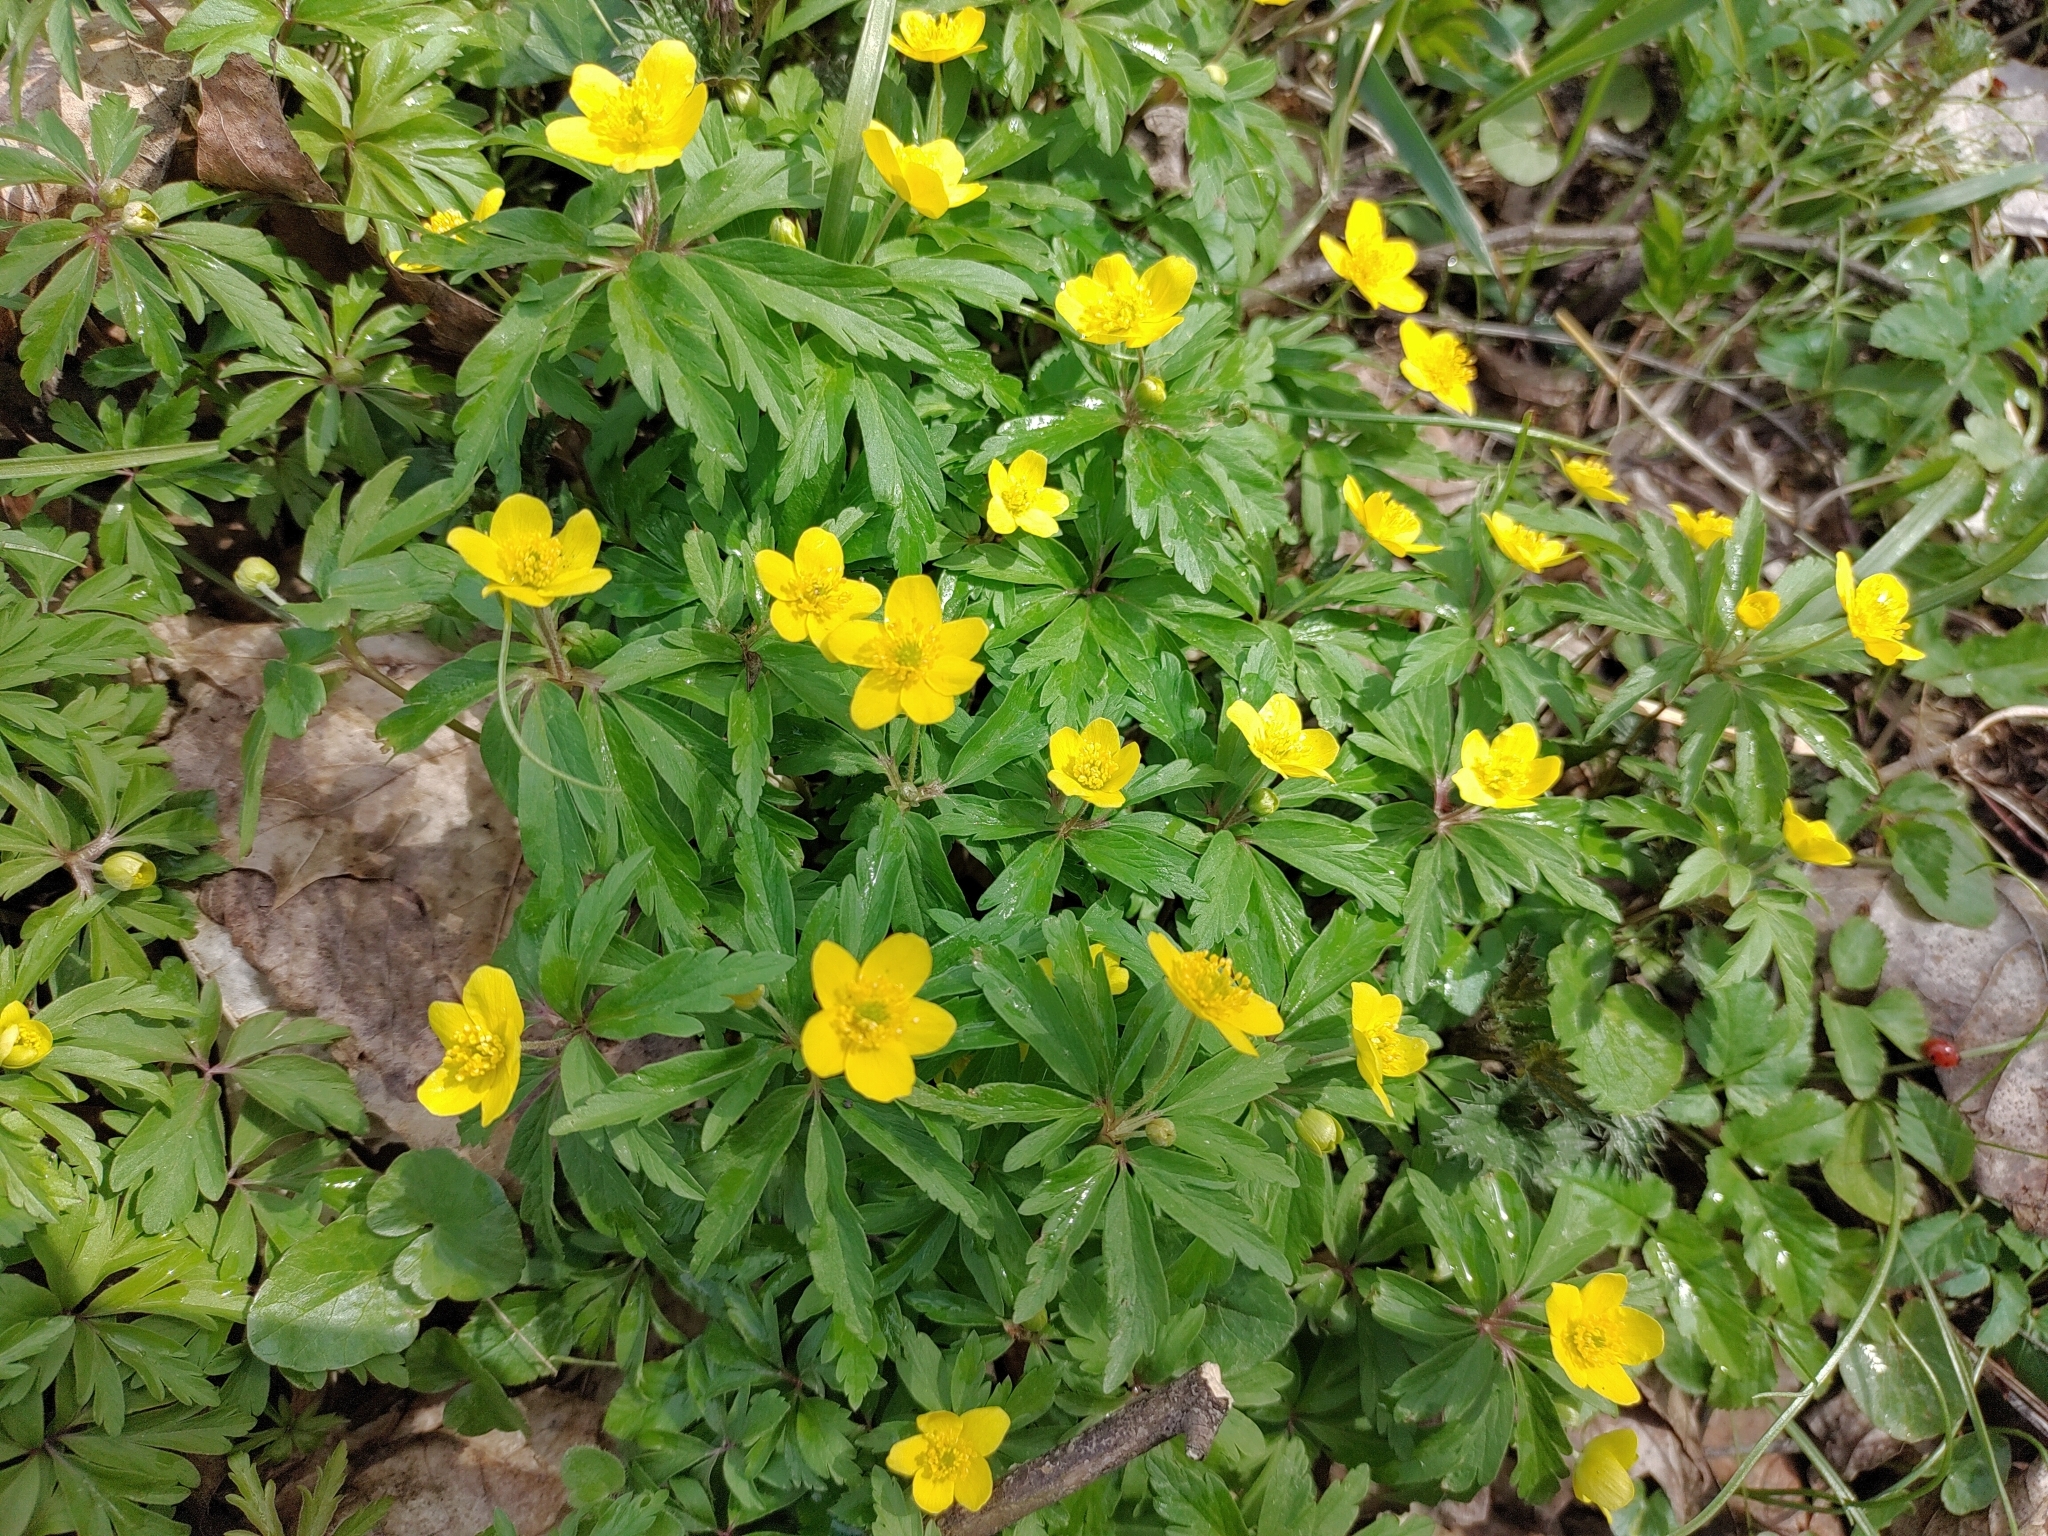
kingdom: Plantae
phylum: Tracheophyta
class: Magnoliopsida
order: Ranunculales
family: Ranunculaceae
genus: Anemone
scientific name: Anemone ranunculoides
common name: Yellow anemone
